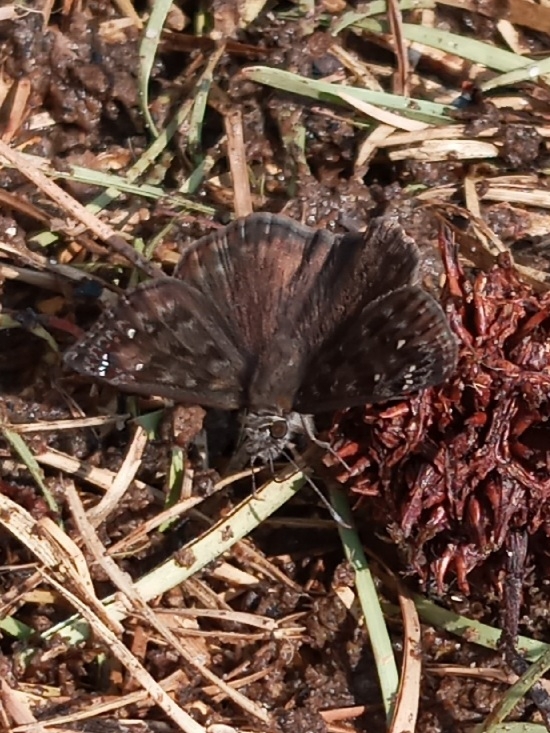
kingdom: Animalia
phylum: Arthropoda
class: Insecta
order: Lepidoptera
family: Hesperiidae
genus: Erynnis
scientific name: Erynnis horatius
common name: Horace's duskywing
